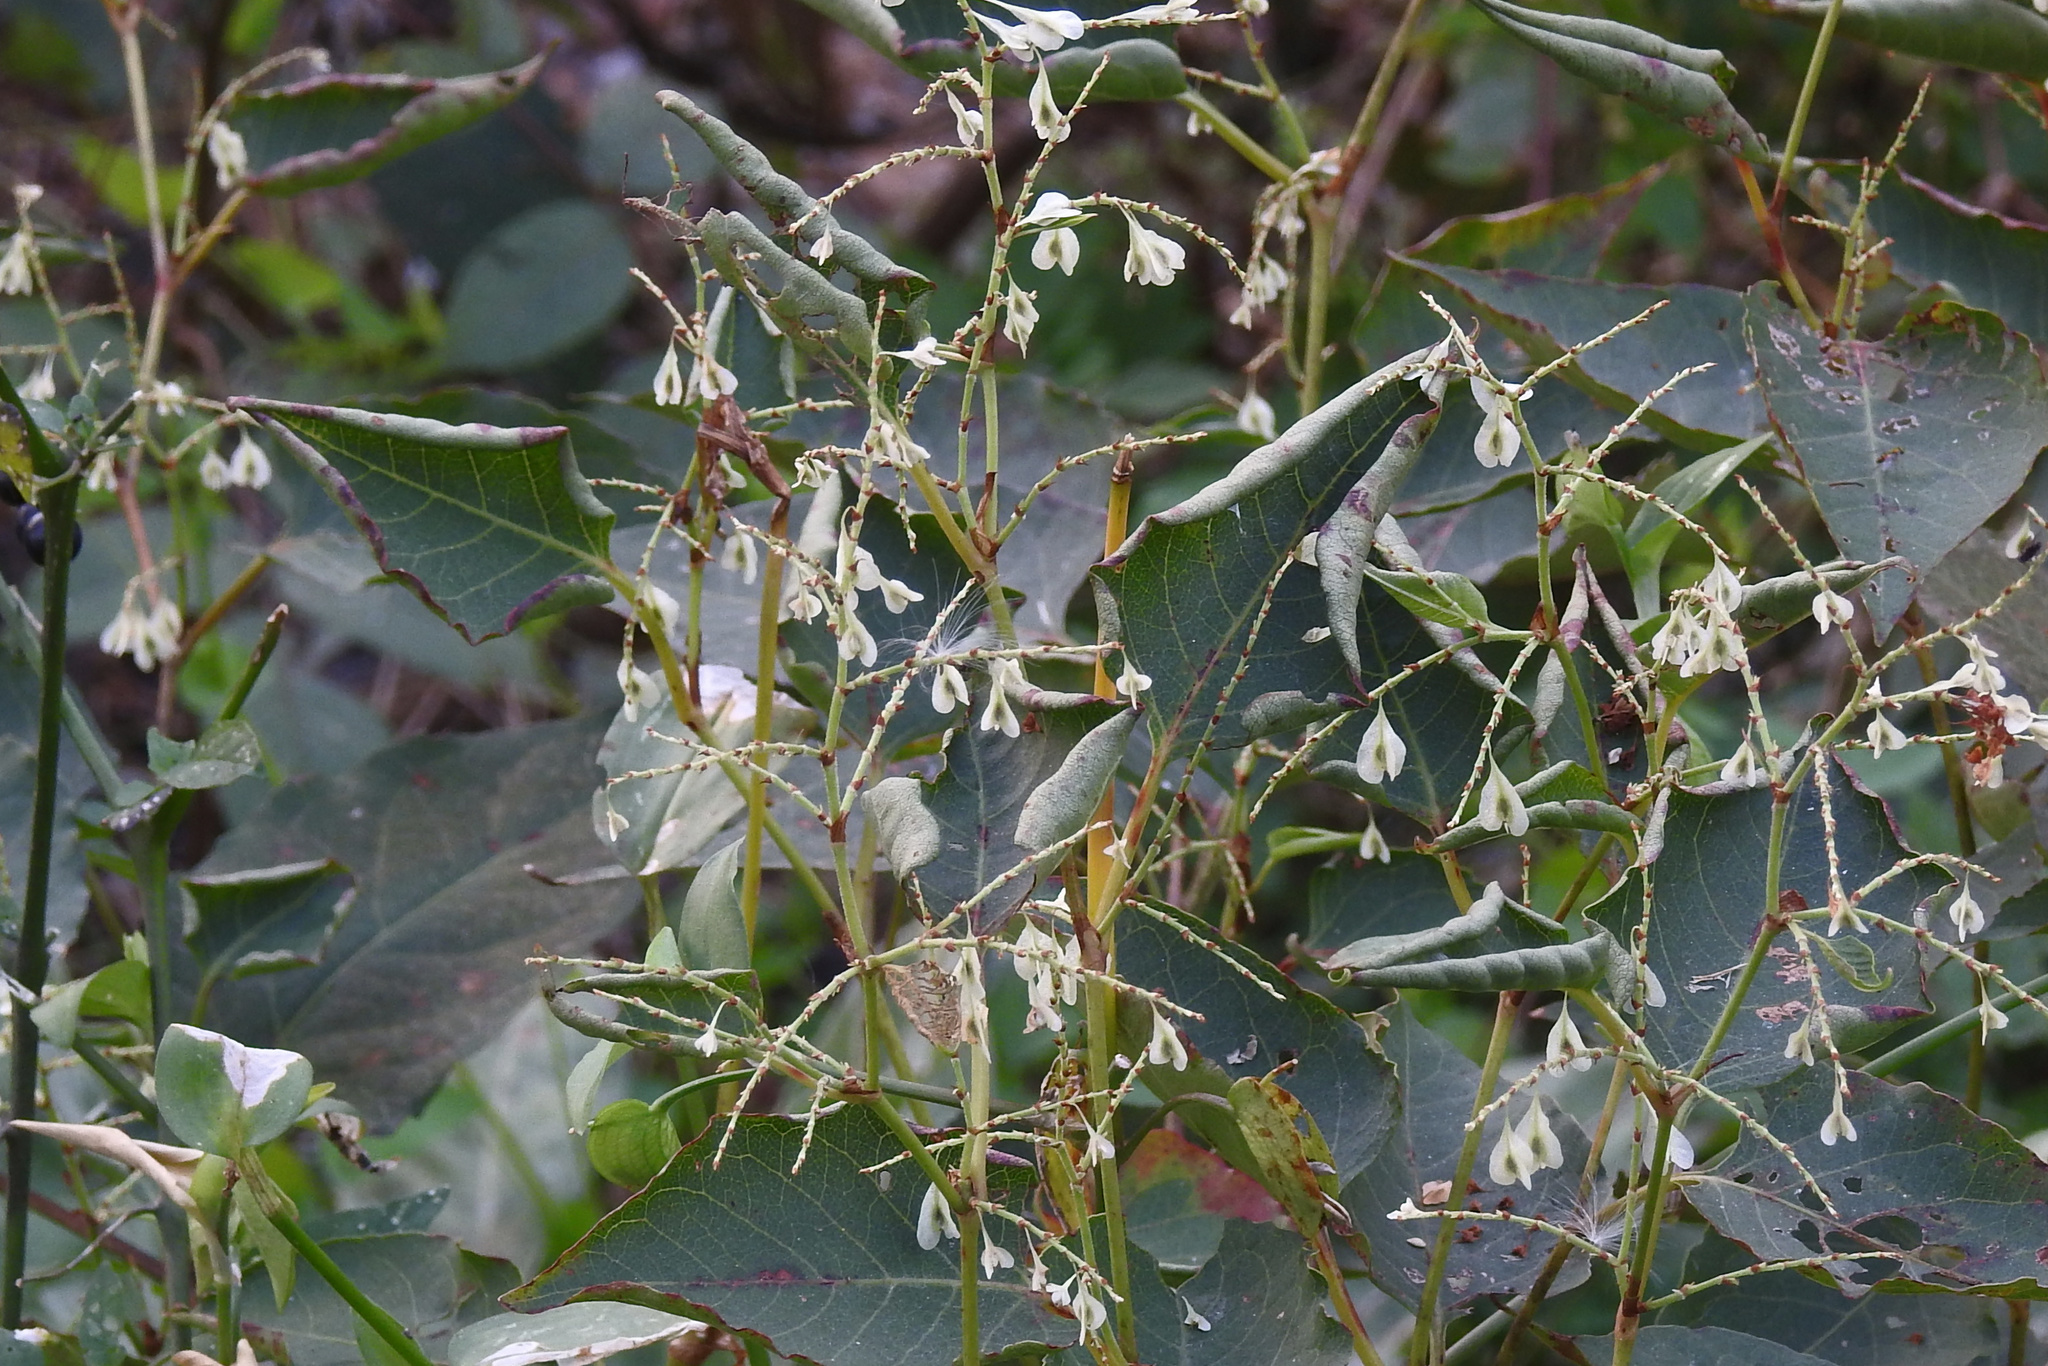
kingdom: Plantae
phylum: Tracheophyta
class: Magnoliopsida
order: Caryophyllales
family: Polygonaceae
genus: Reynoutria
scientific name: Reynoutria japonica
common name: Japanese knotweed
